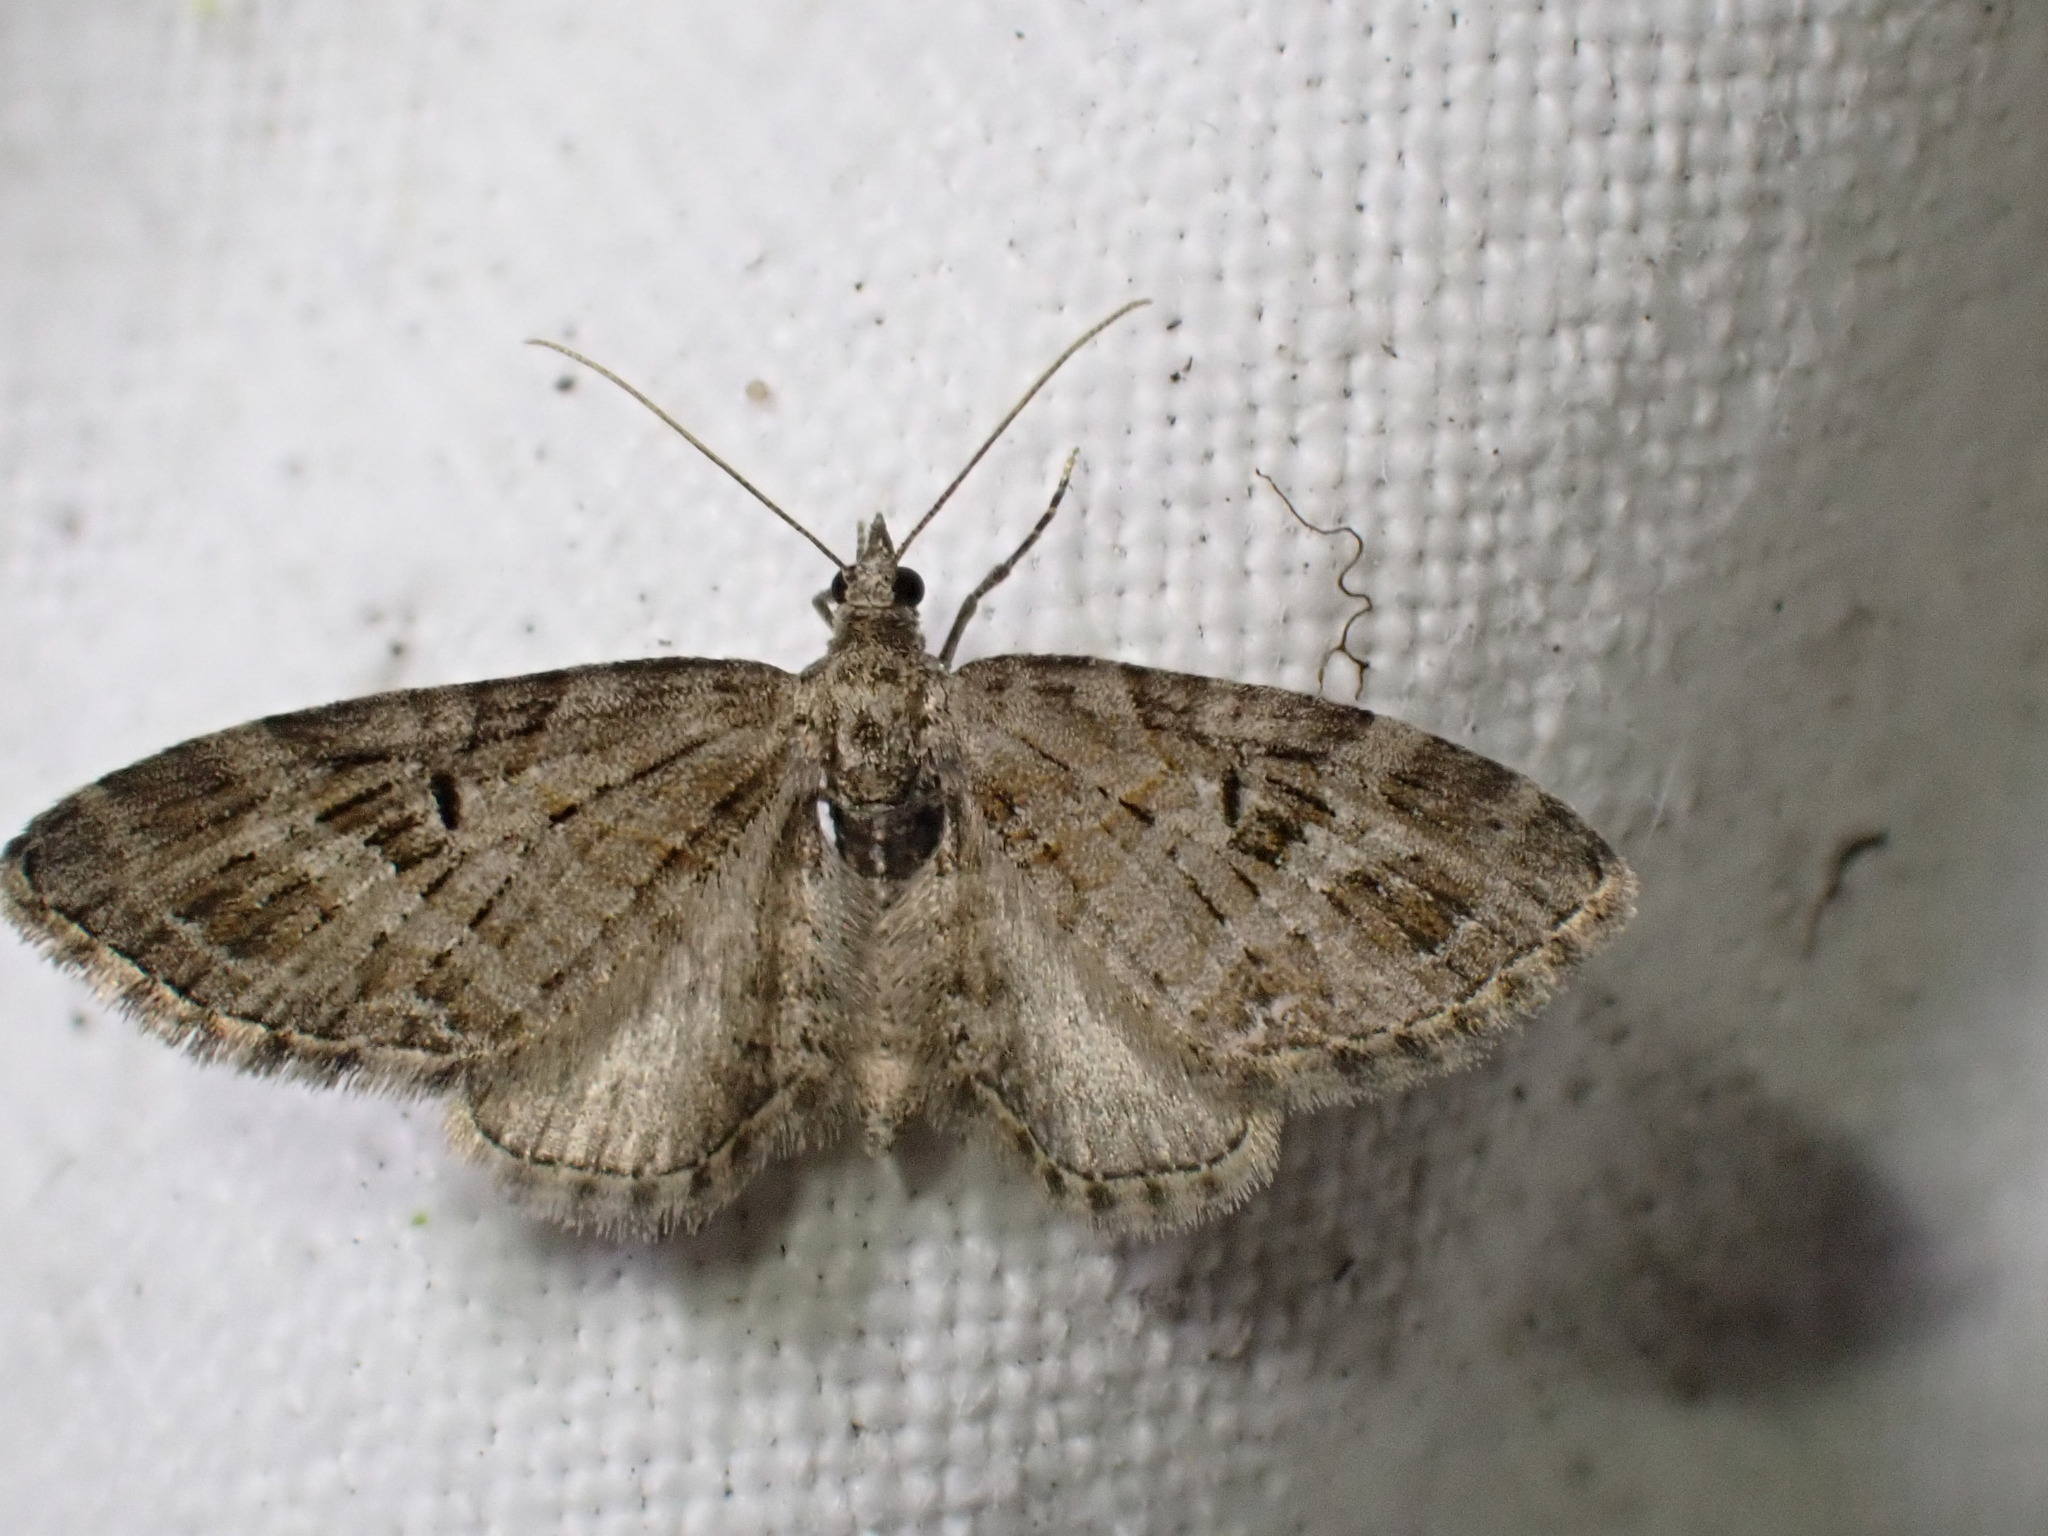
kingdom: Animalia
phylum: Arthropoda
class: Insecta
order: Lepidoptera
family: Geometridae
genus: Eupithecia
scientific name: Eupithecia exiguata
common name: Mottled pug
